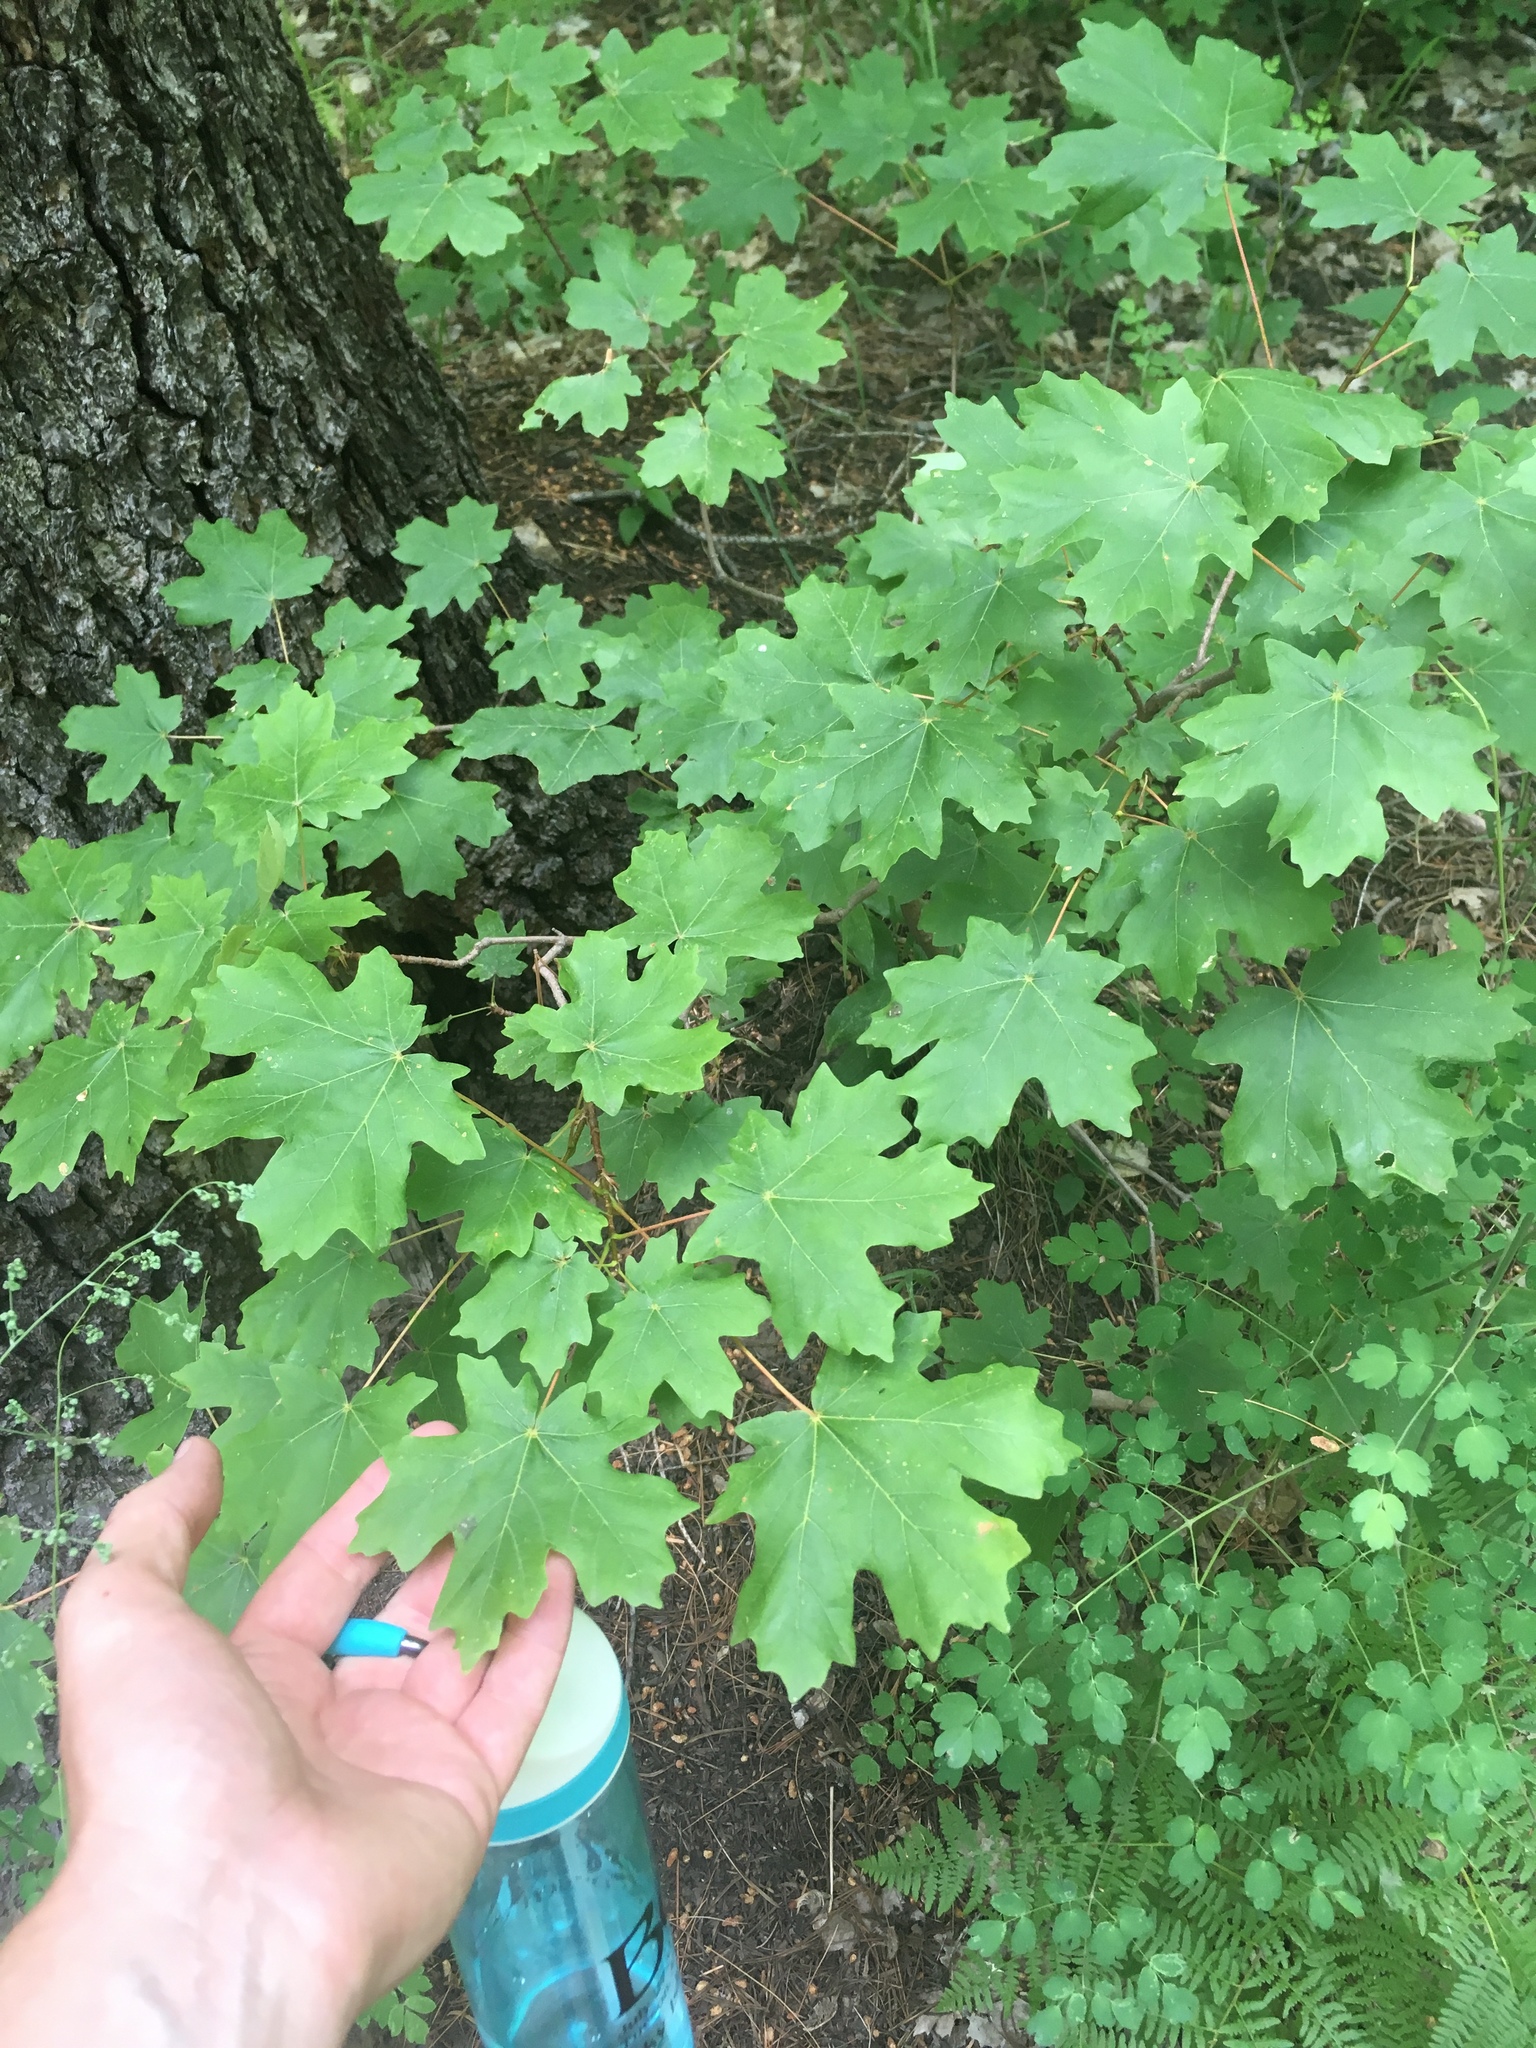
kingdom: Plantae
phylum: Tracheophyta
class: Magnoliopsida
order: Sapindales
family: Sapindaceae
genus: Acer
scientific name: Acer grandidentatum
